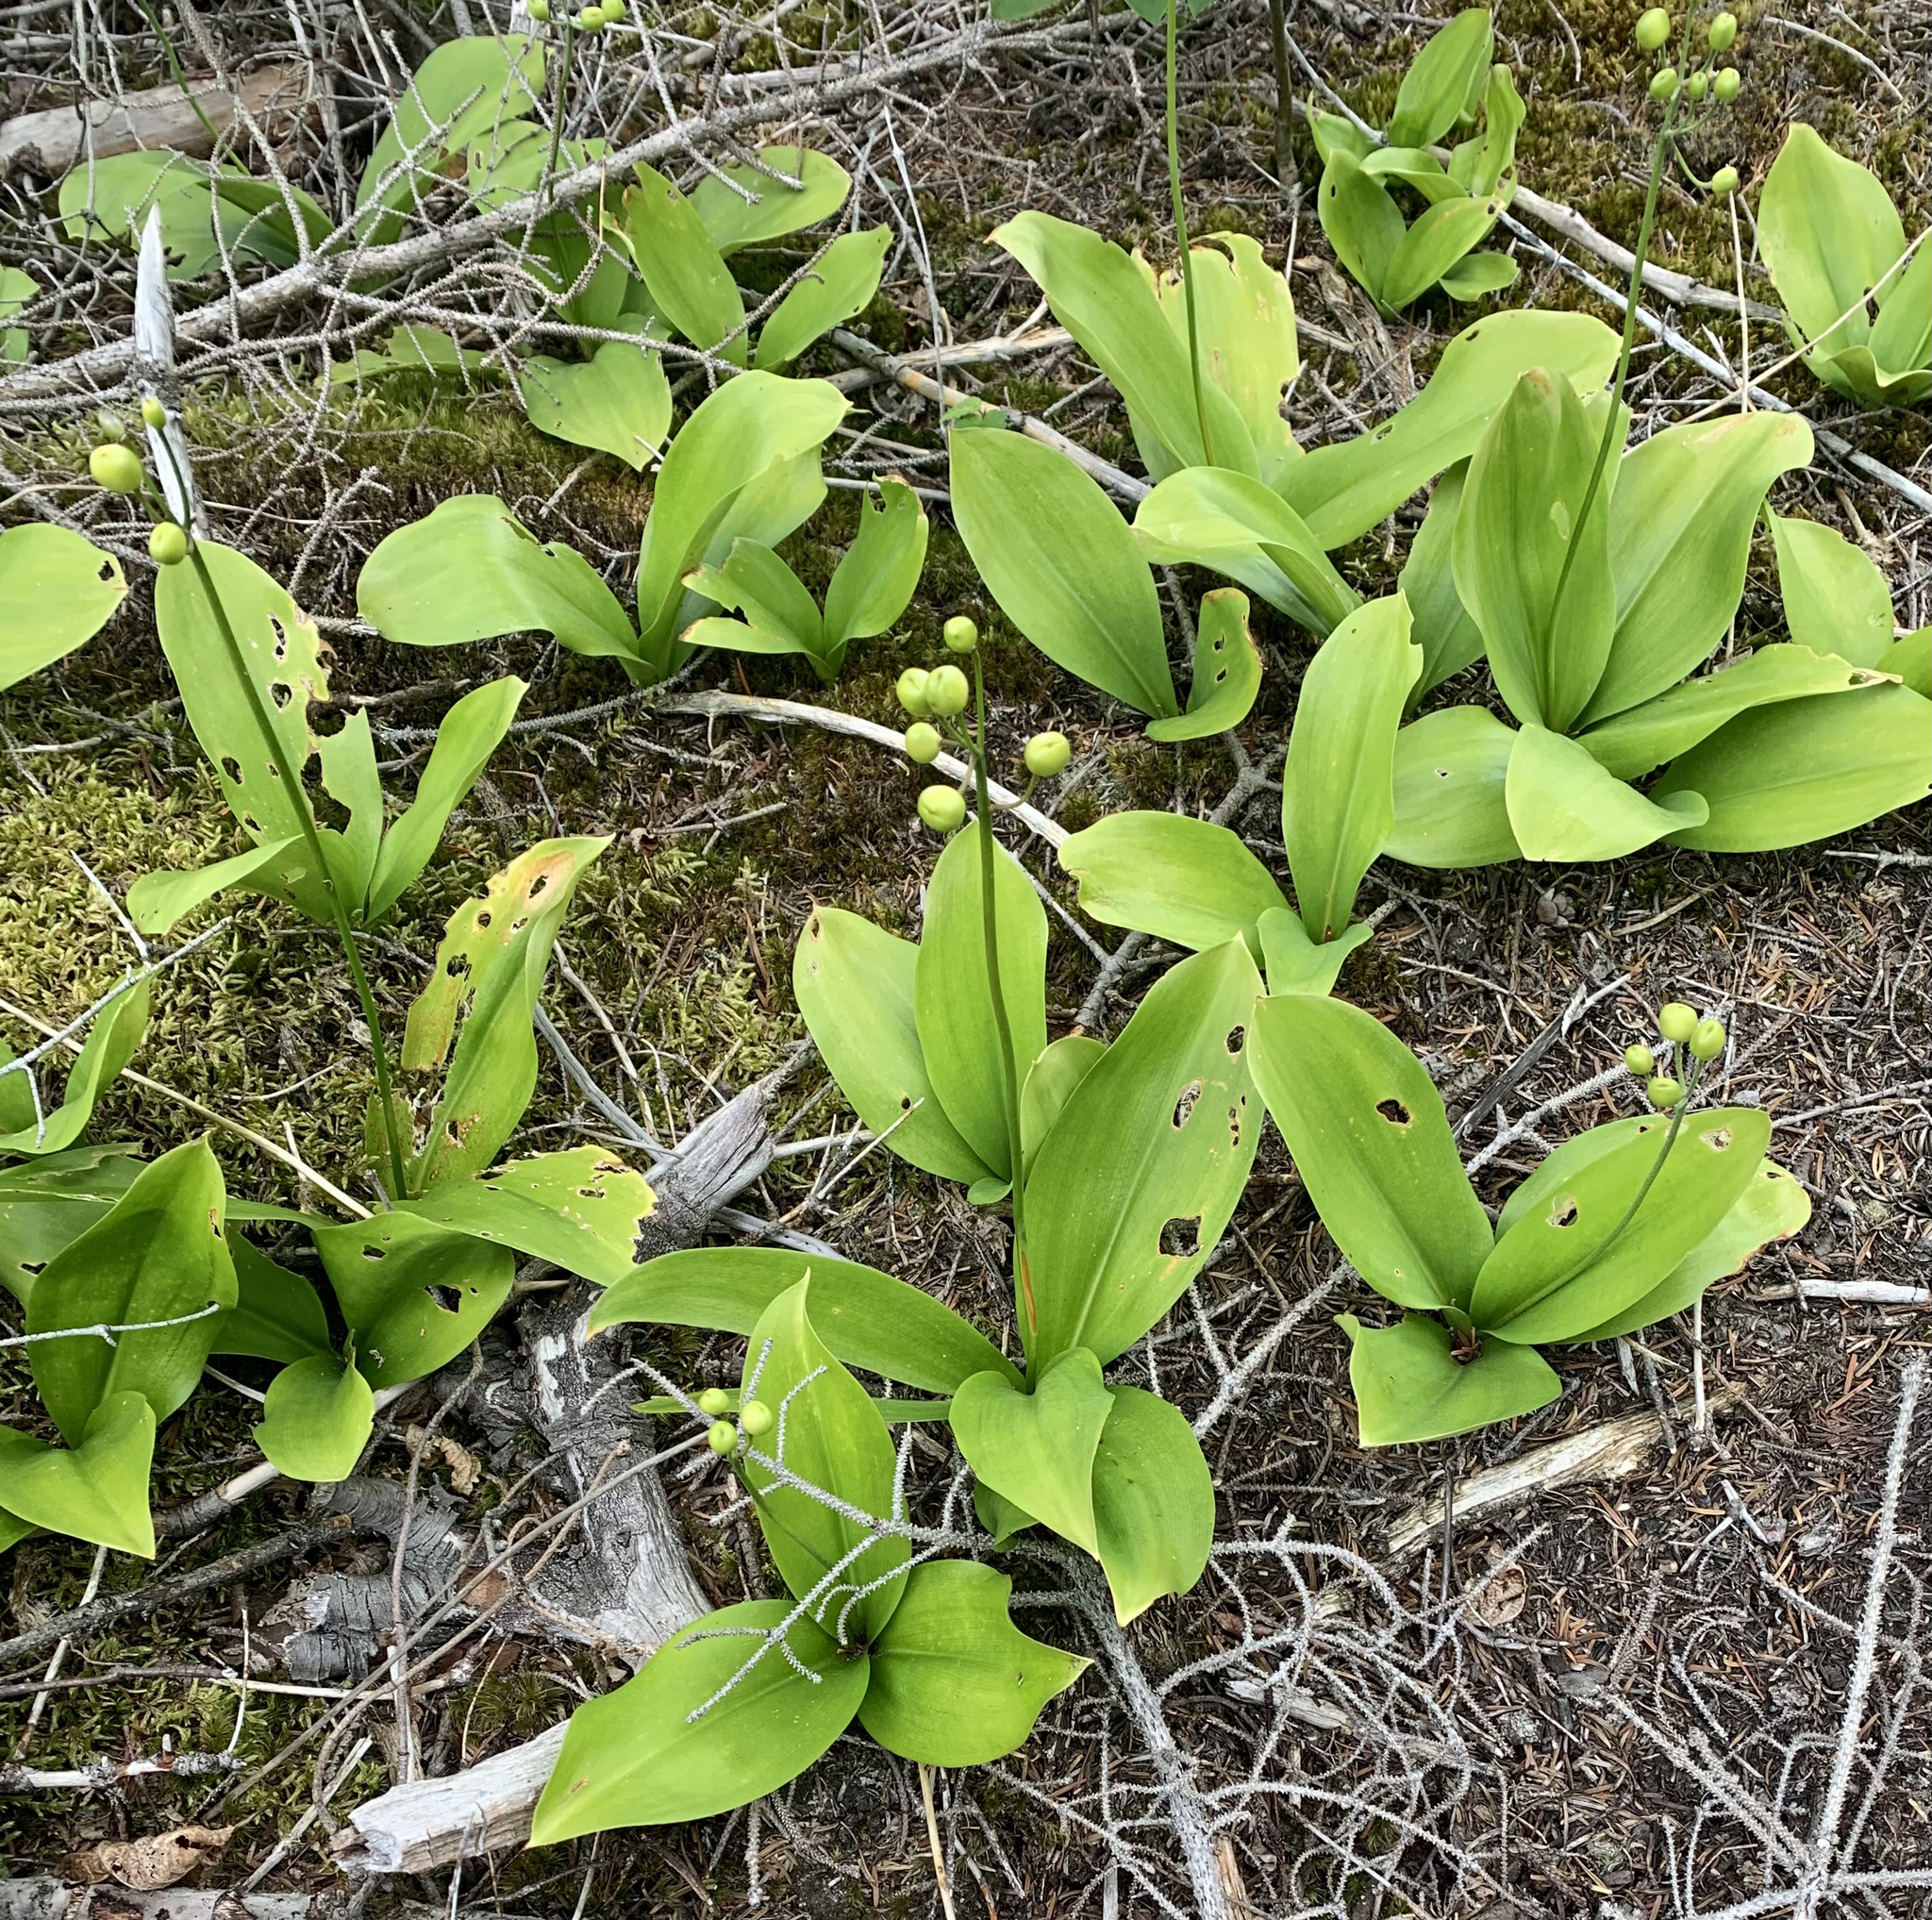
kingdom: Plantae
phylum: Tracheophyta
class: Liliopsida
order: Liliales
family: Liliaceae
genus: Clintonia
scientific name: Clintonia borealis
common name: Yellow clintonia
